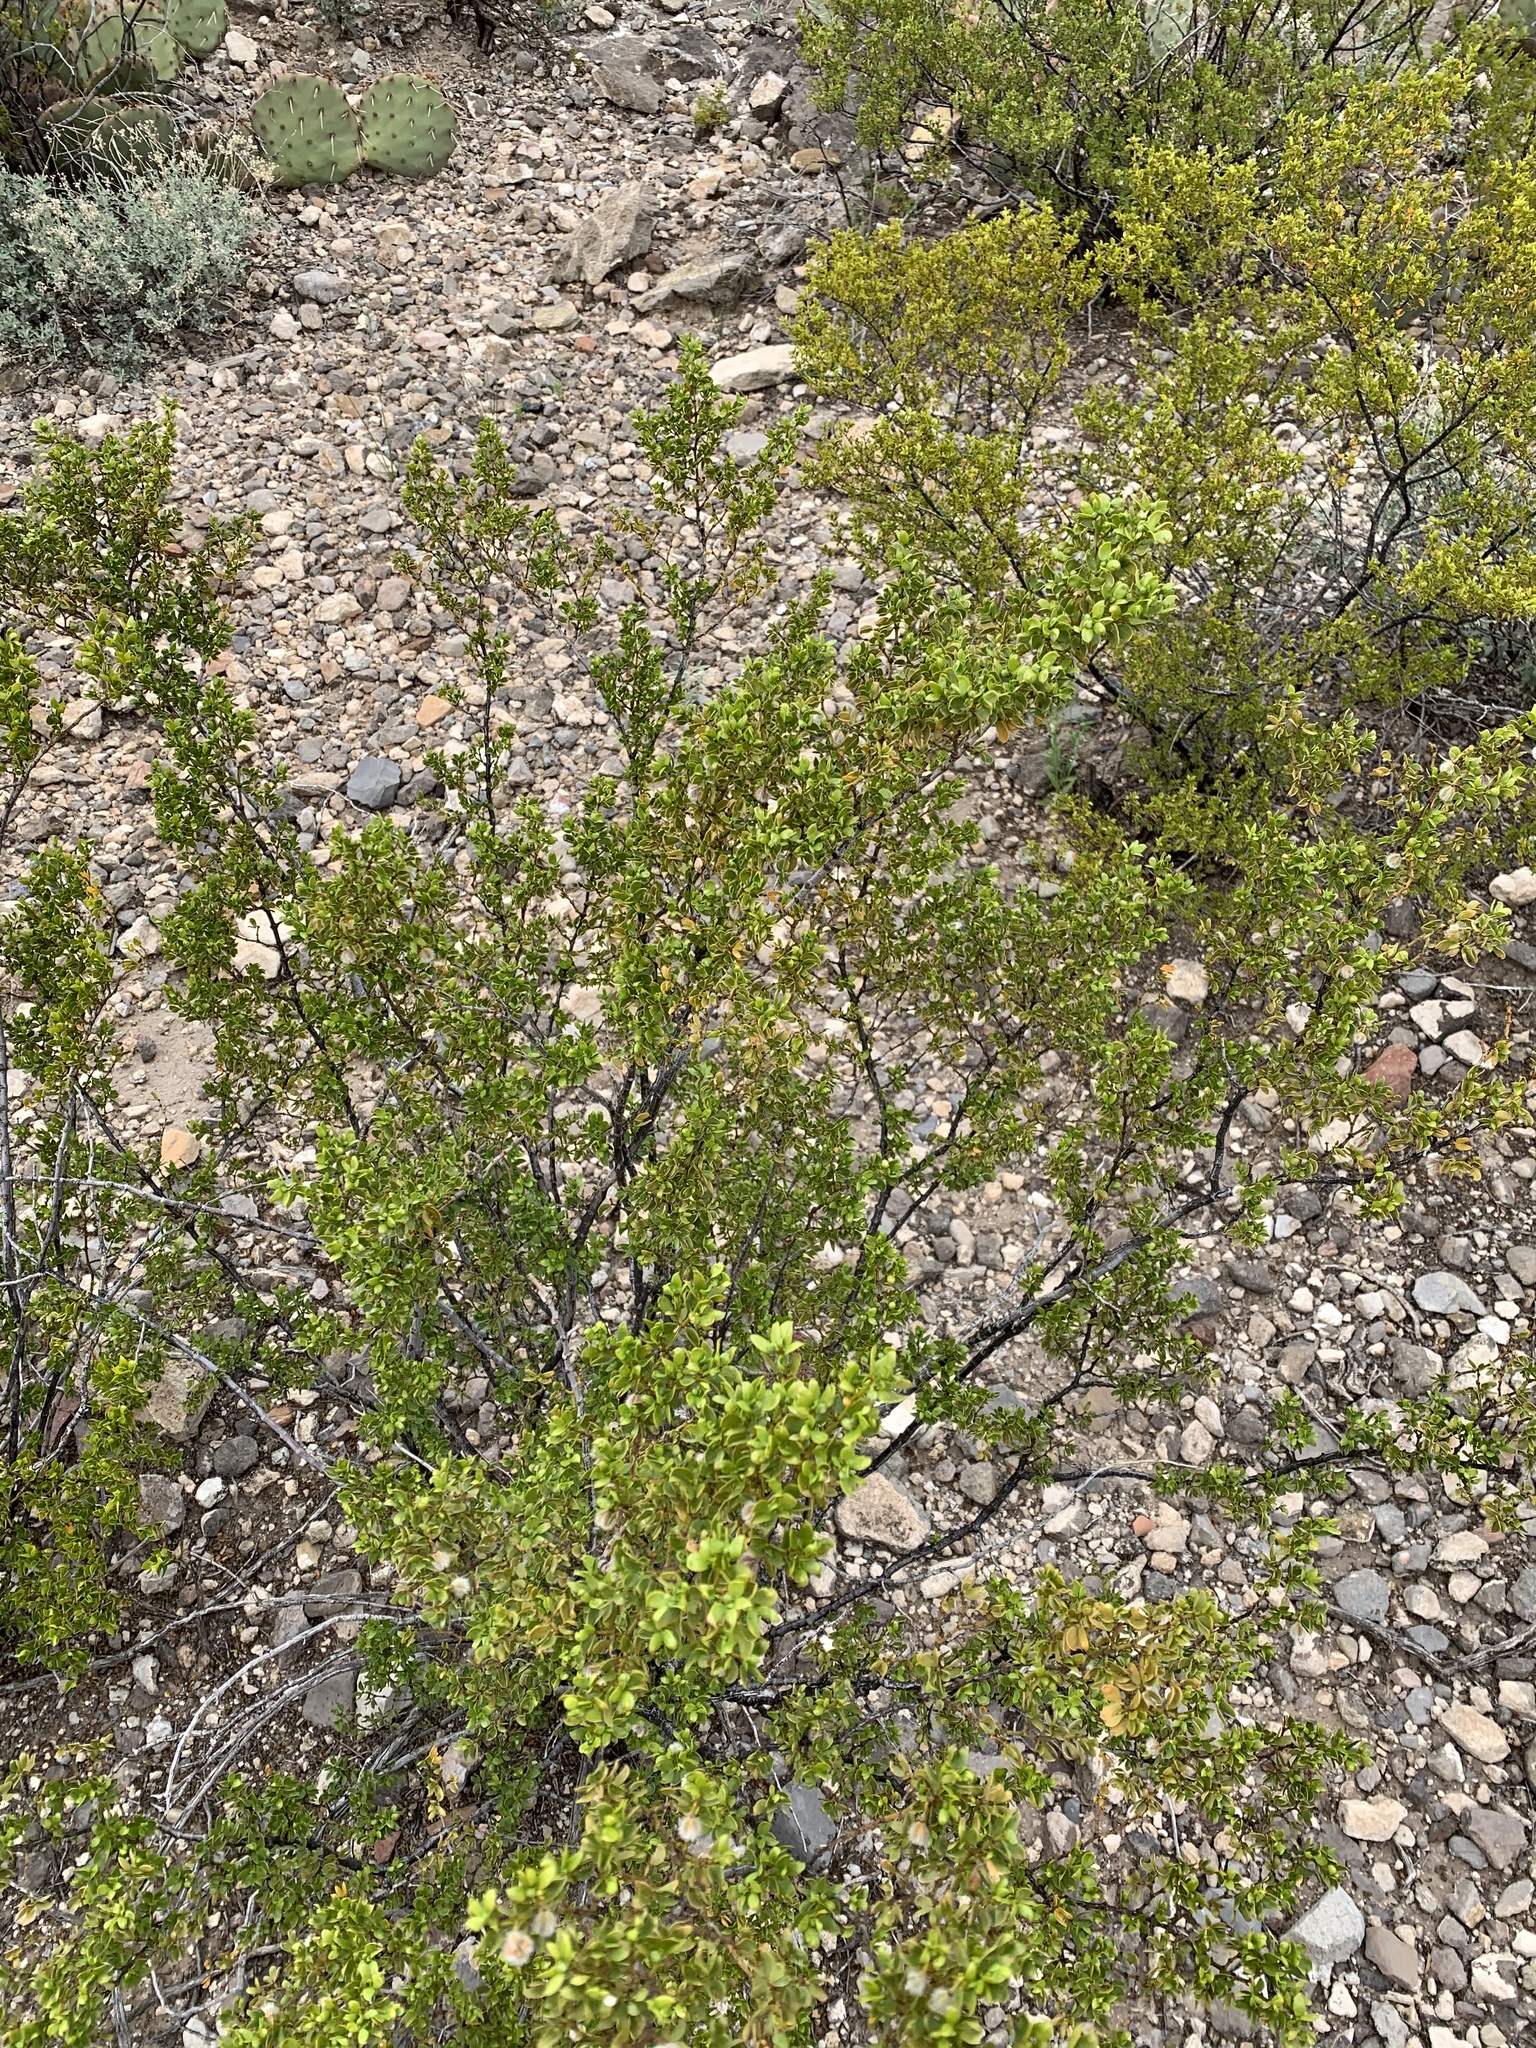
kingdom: Plantae
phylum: Tracheophyta
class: Magnoliopsida
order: Zygophyllales
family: Zygophyllaceae
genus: Larrea
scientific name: Larrea tridentata
